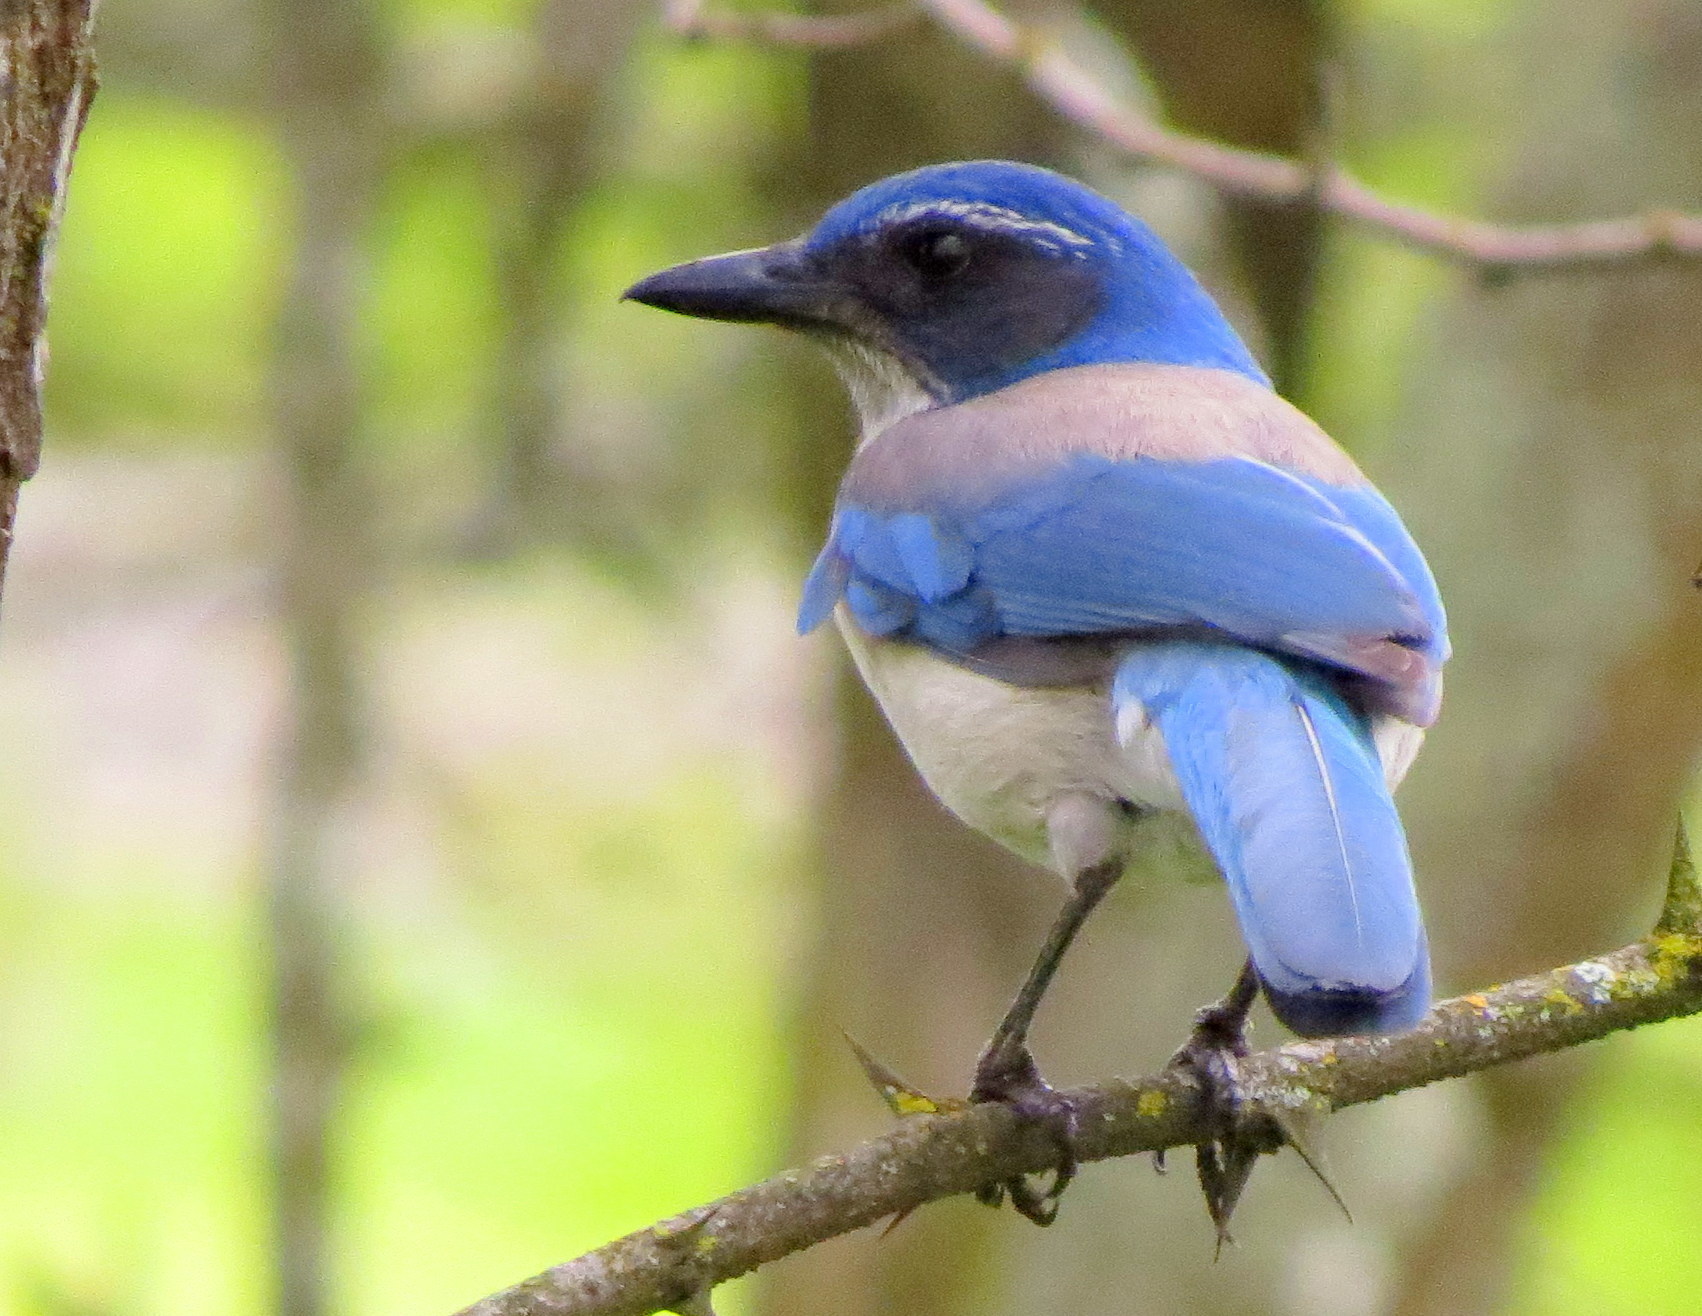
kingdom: Animalia
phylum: Chordata
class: Aves
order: Passeriformes
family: Corvidae
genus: Aphelocoma
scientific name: Aphelocoma californica
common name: California scrub-jay
